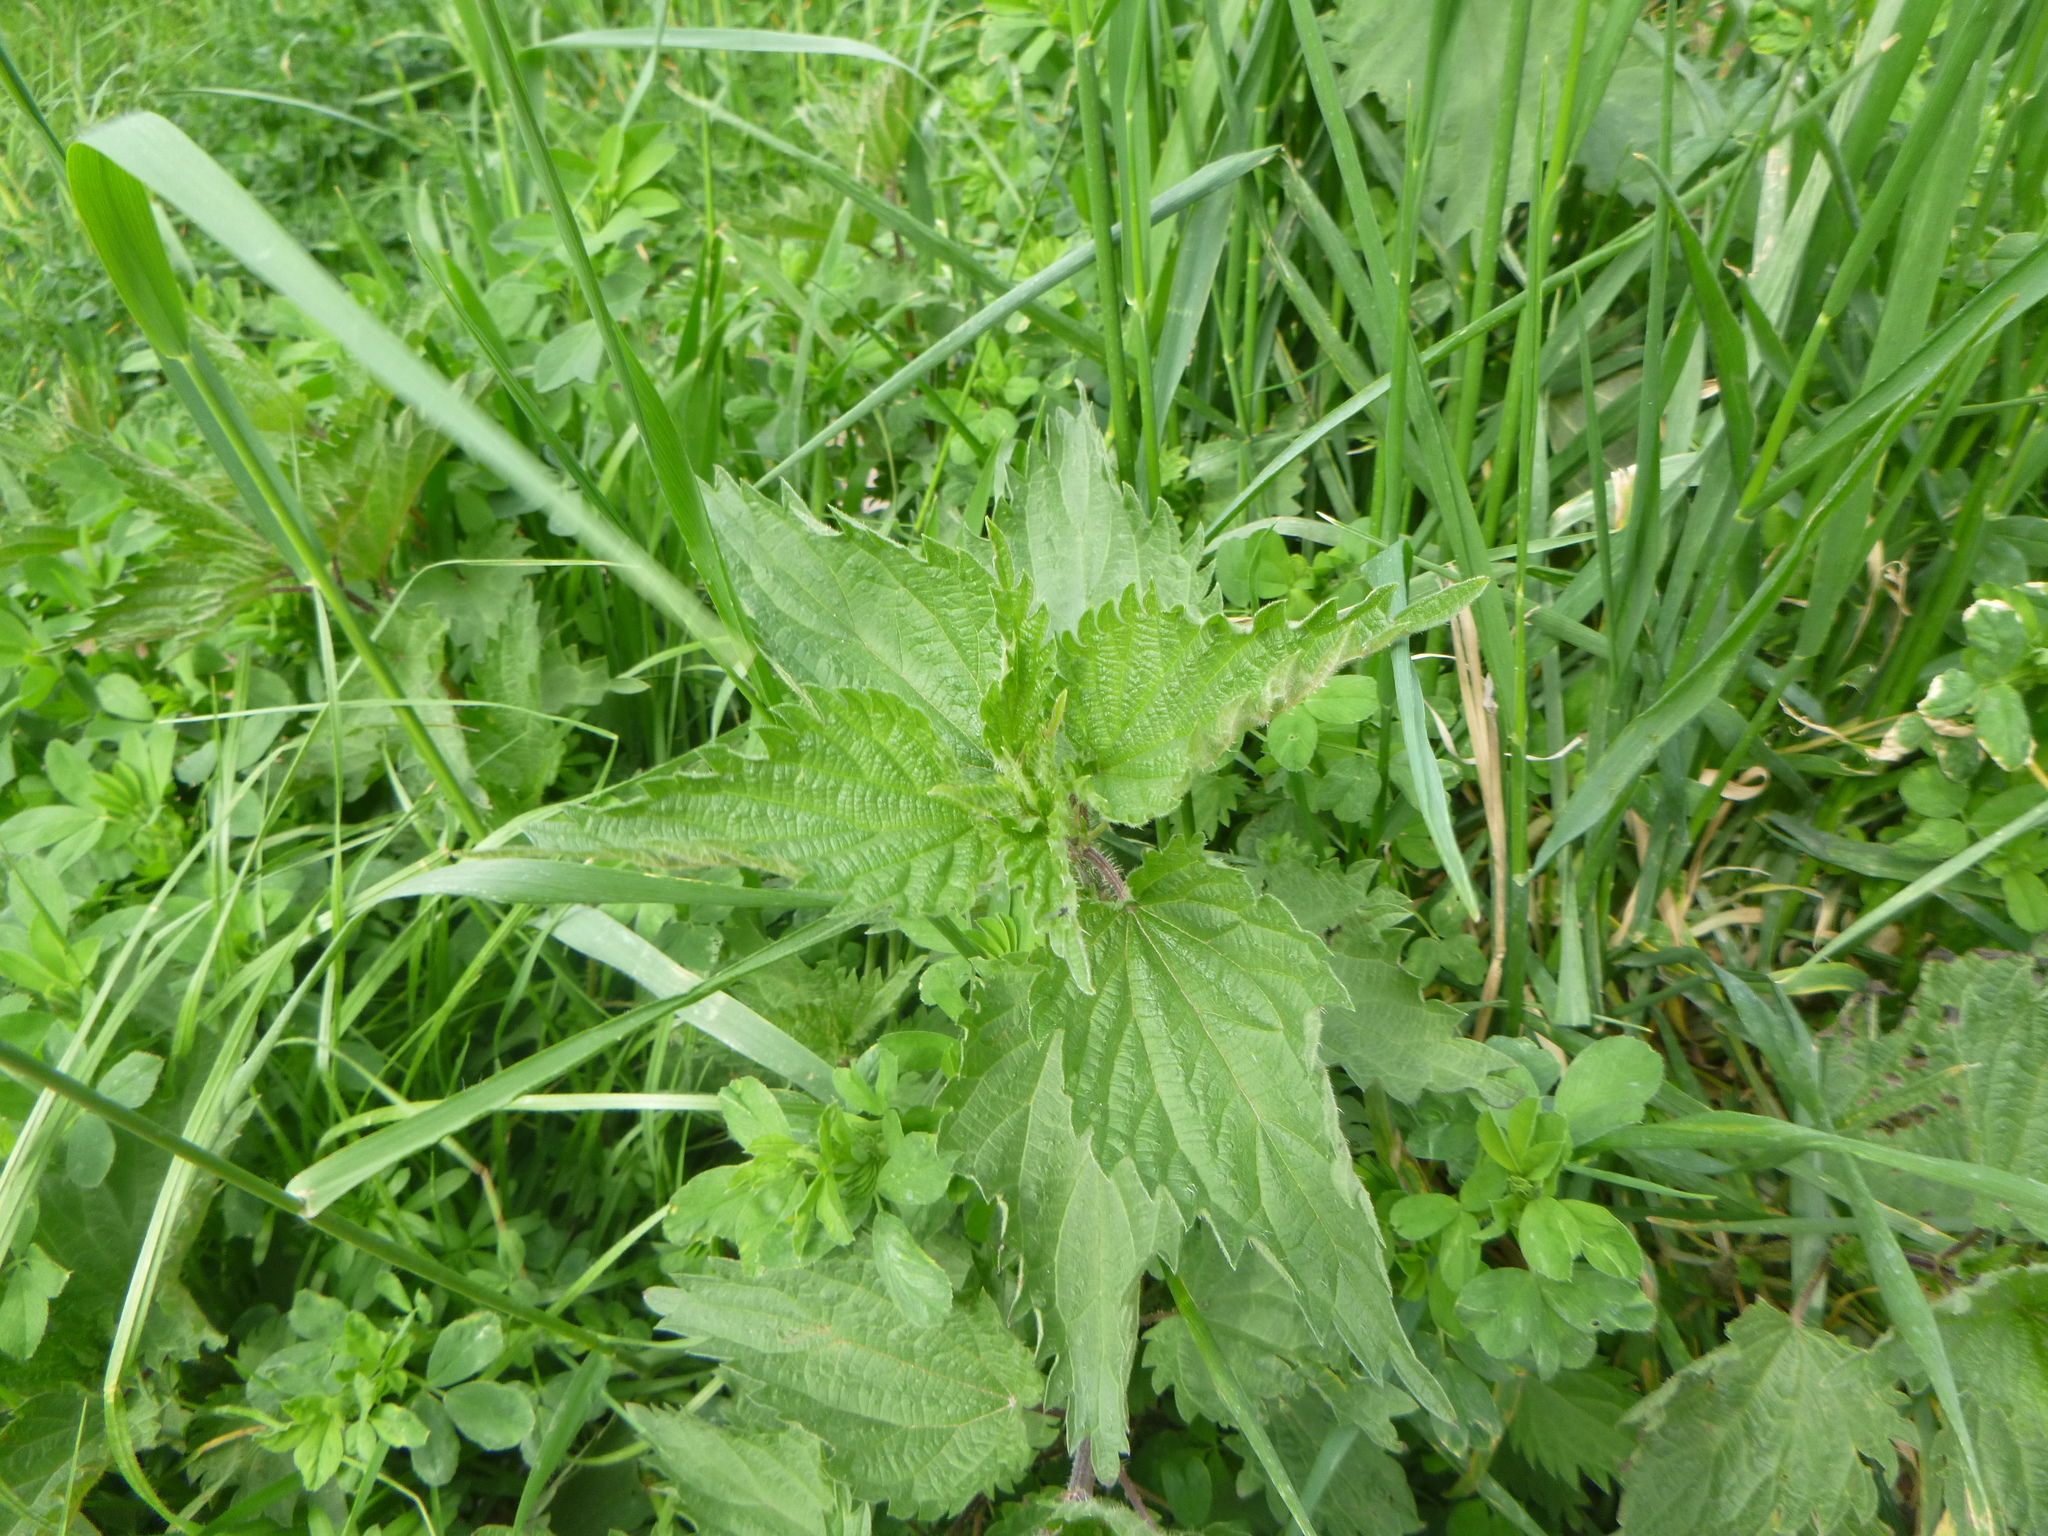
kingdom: Plantae
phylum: Tracheophyta
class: Magnoliopsida
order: Rosales
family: Urticaceae
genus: Urtica
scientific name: Urtica dioica
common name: Common nettle
